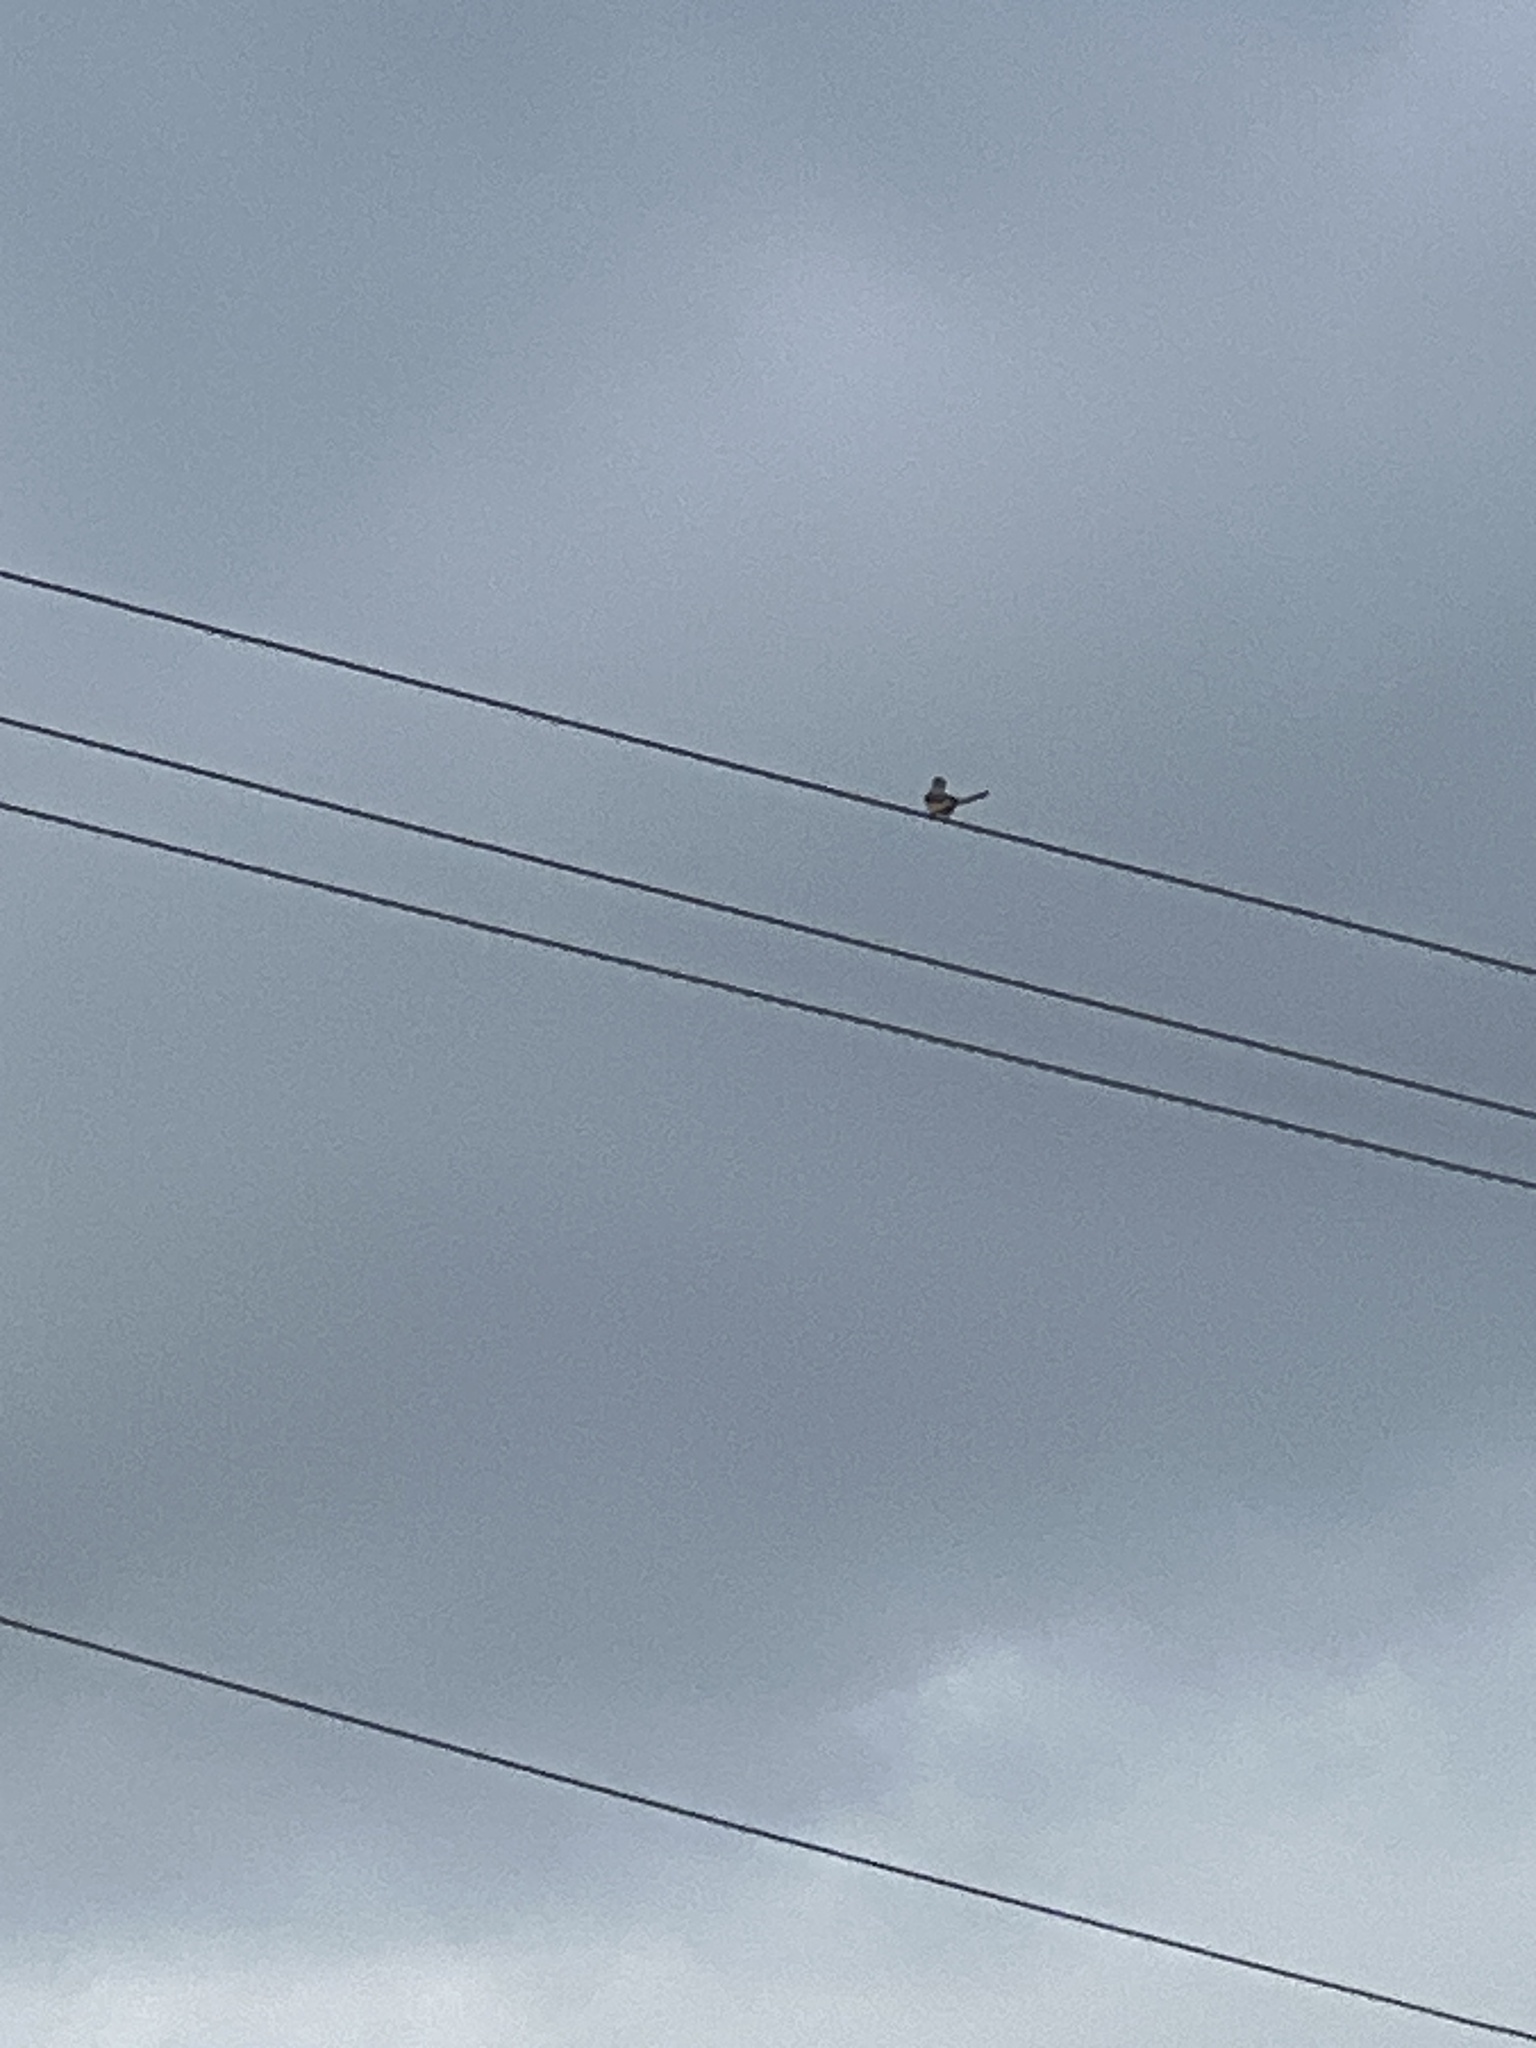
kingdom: Animalia
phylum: Chordata
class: Aves
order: Passeriformes
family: Tyrannidae
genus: Tyrannus
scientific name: Tyrannus forficatus
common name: Scissor-tailed flycatcher
